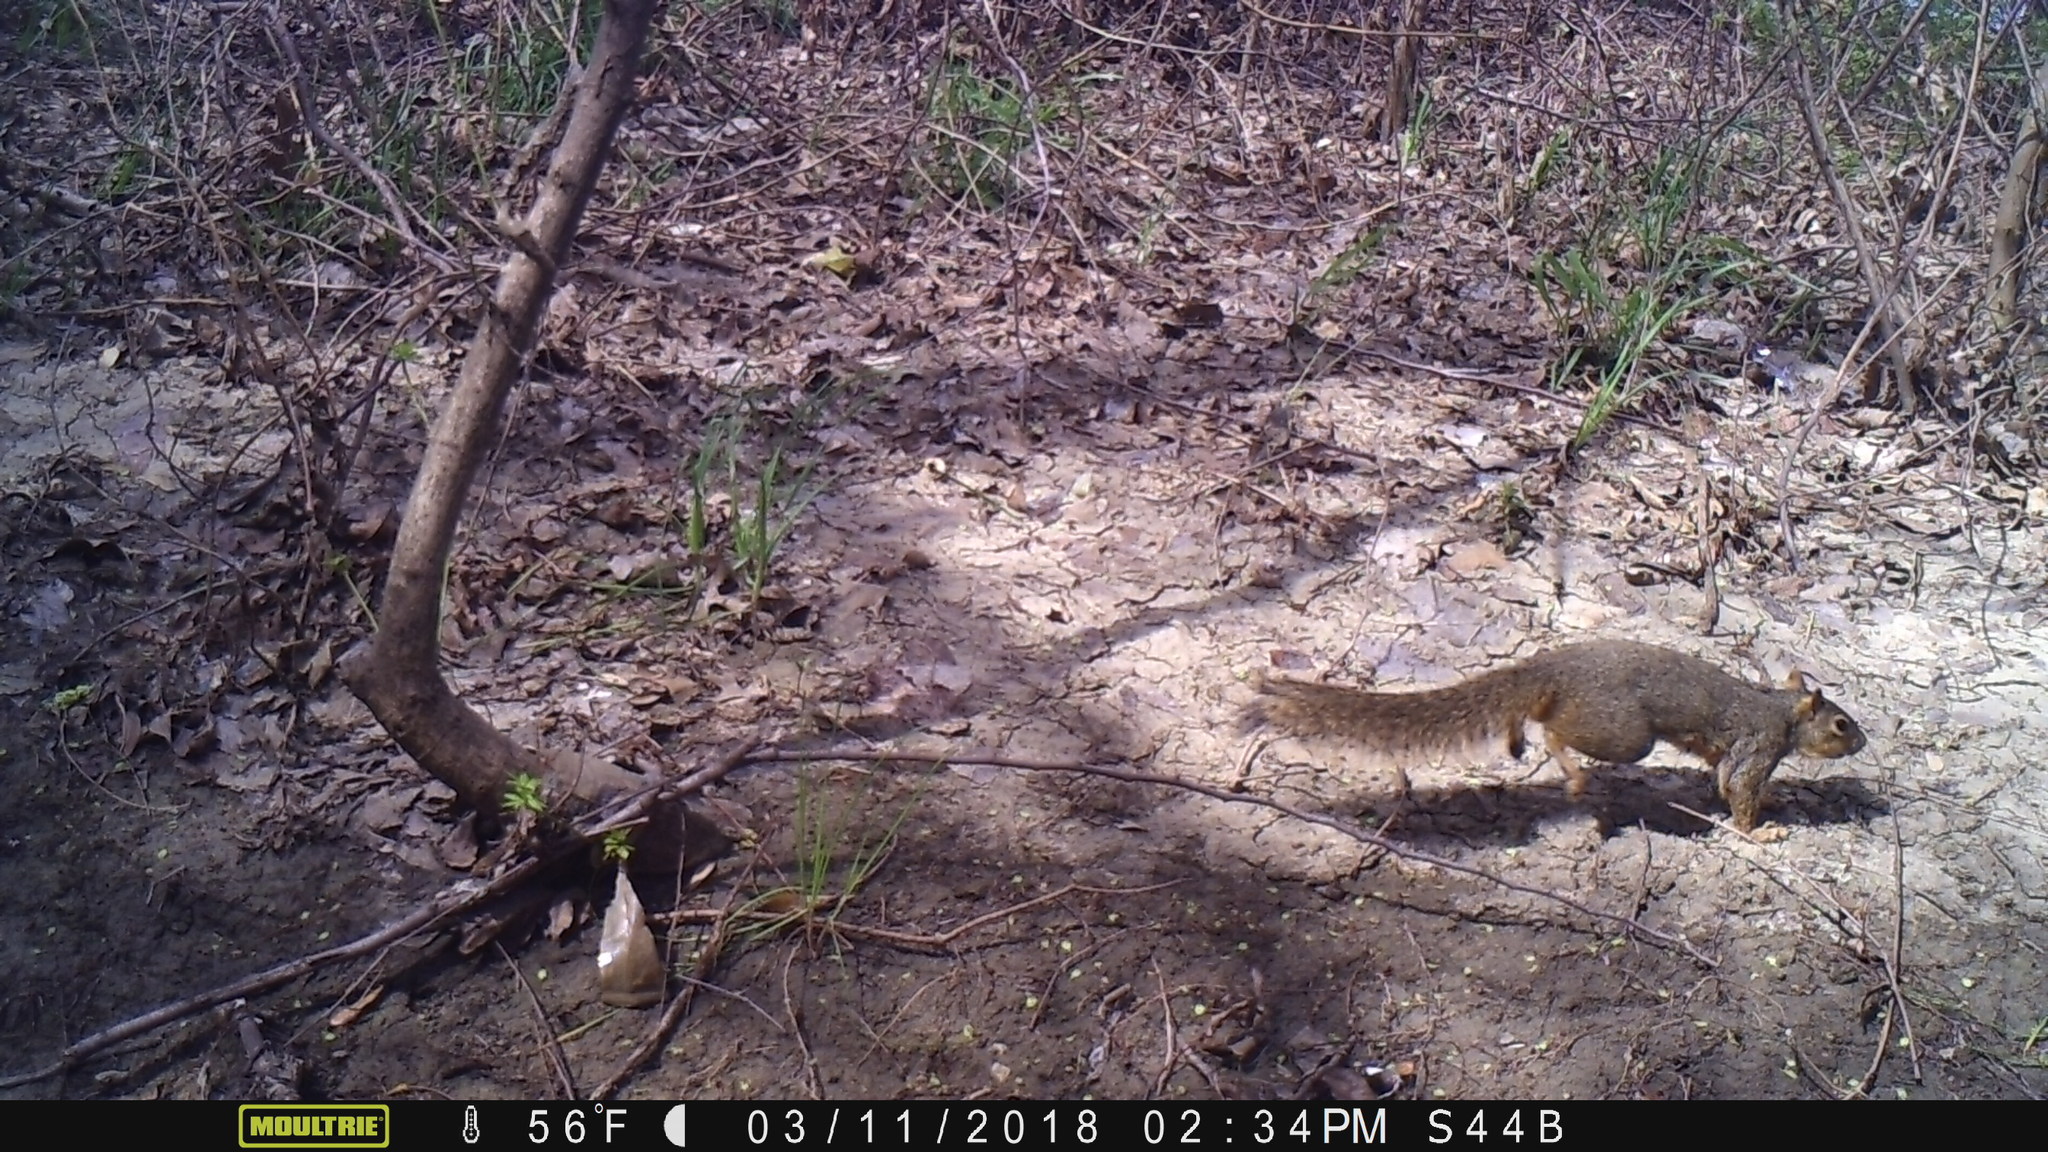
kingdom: Animalia
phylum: Chordata
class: Mammalia
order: Rodentia
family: Sciuridae
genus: Sciurus
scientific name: Sciurus niger
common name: Fox squirrel
